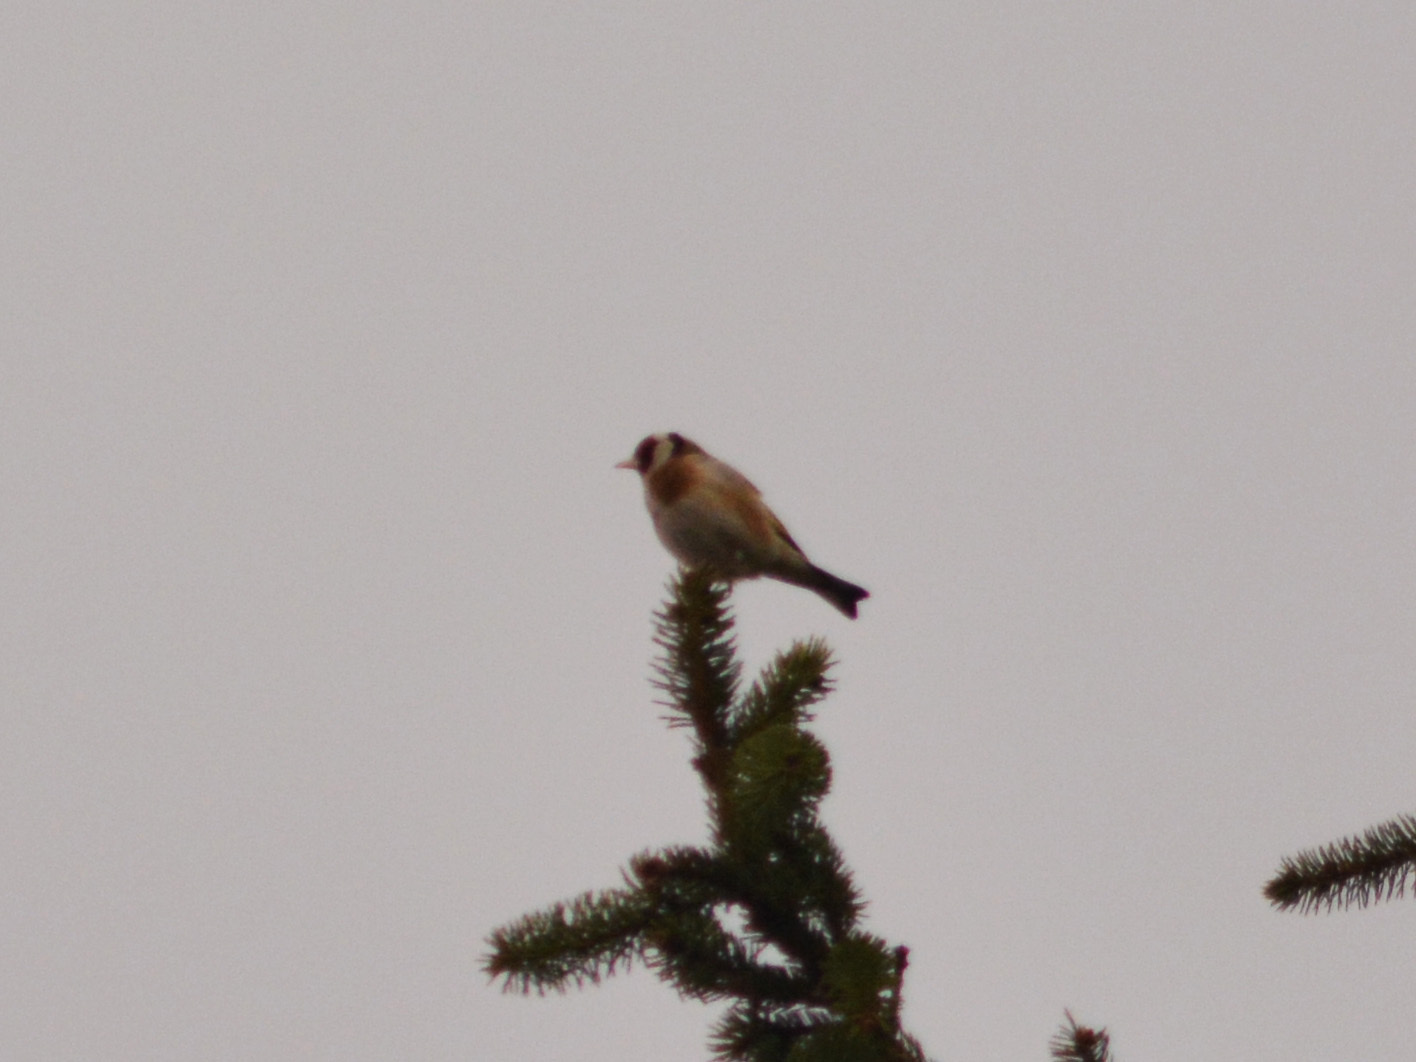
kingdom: Animalia
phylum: Chordata
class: Aves
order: Passeriformes
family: Fringillidae
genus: Carduelis
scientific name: Carduelis carduelis
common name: European goldfinch
